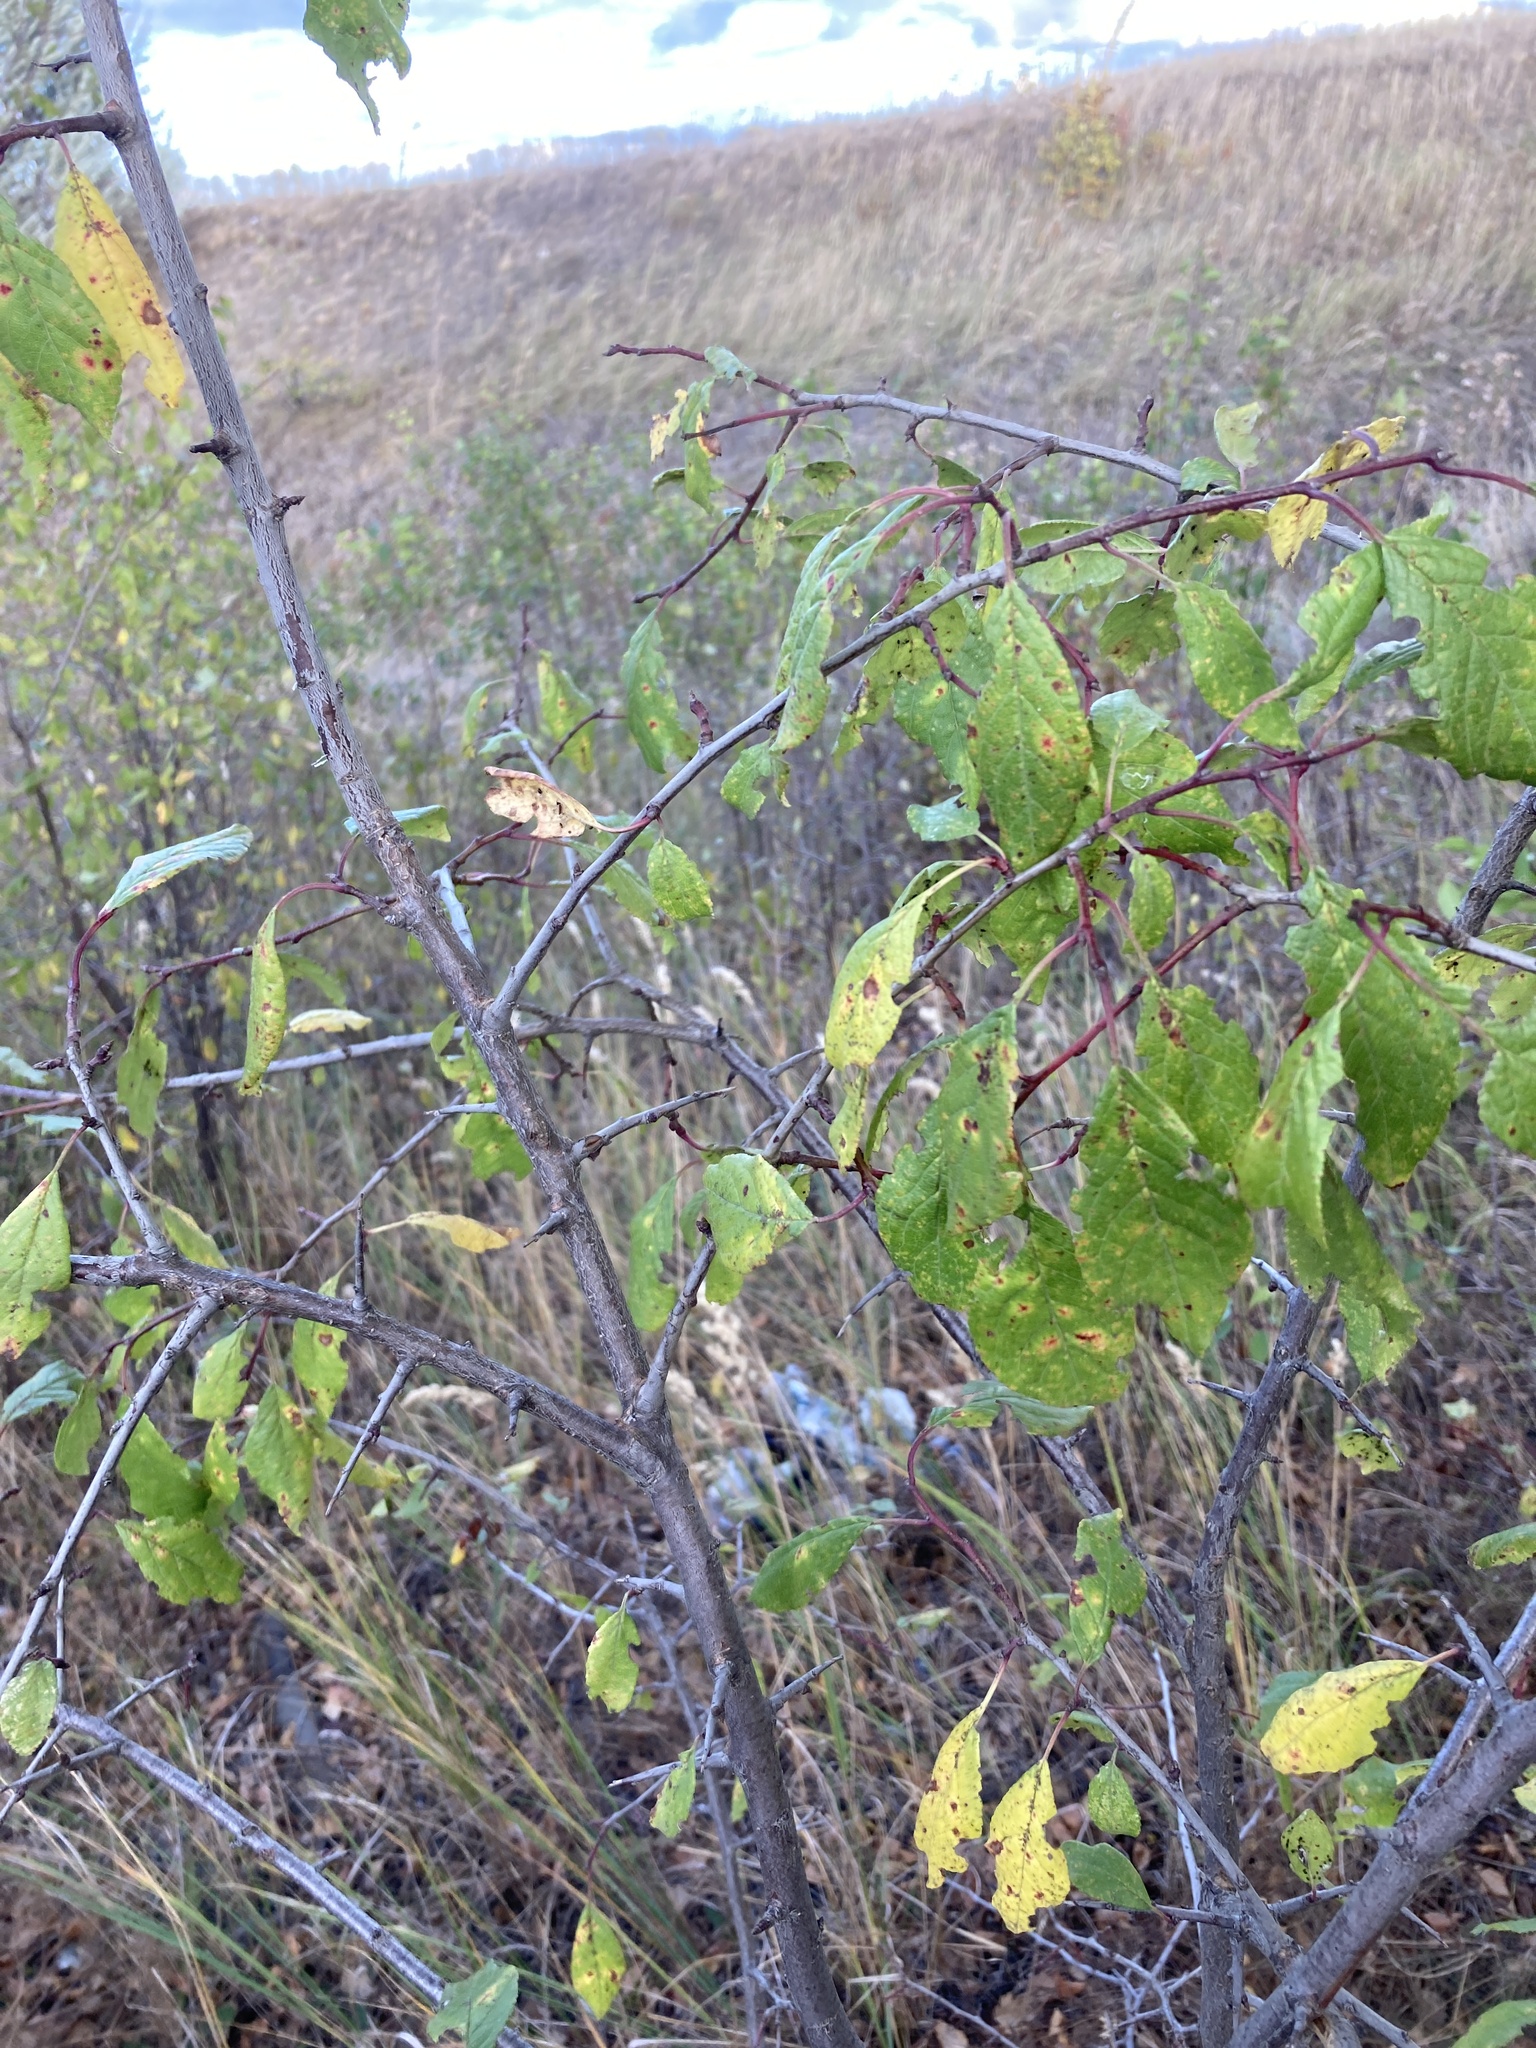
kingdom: Plantae
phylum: Tracheophyta
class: Magnoliopsida
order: Rosales
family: Rosaceae
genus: Prunus
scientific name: Prunus spinosa
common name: Blackthorn
